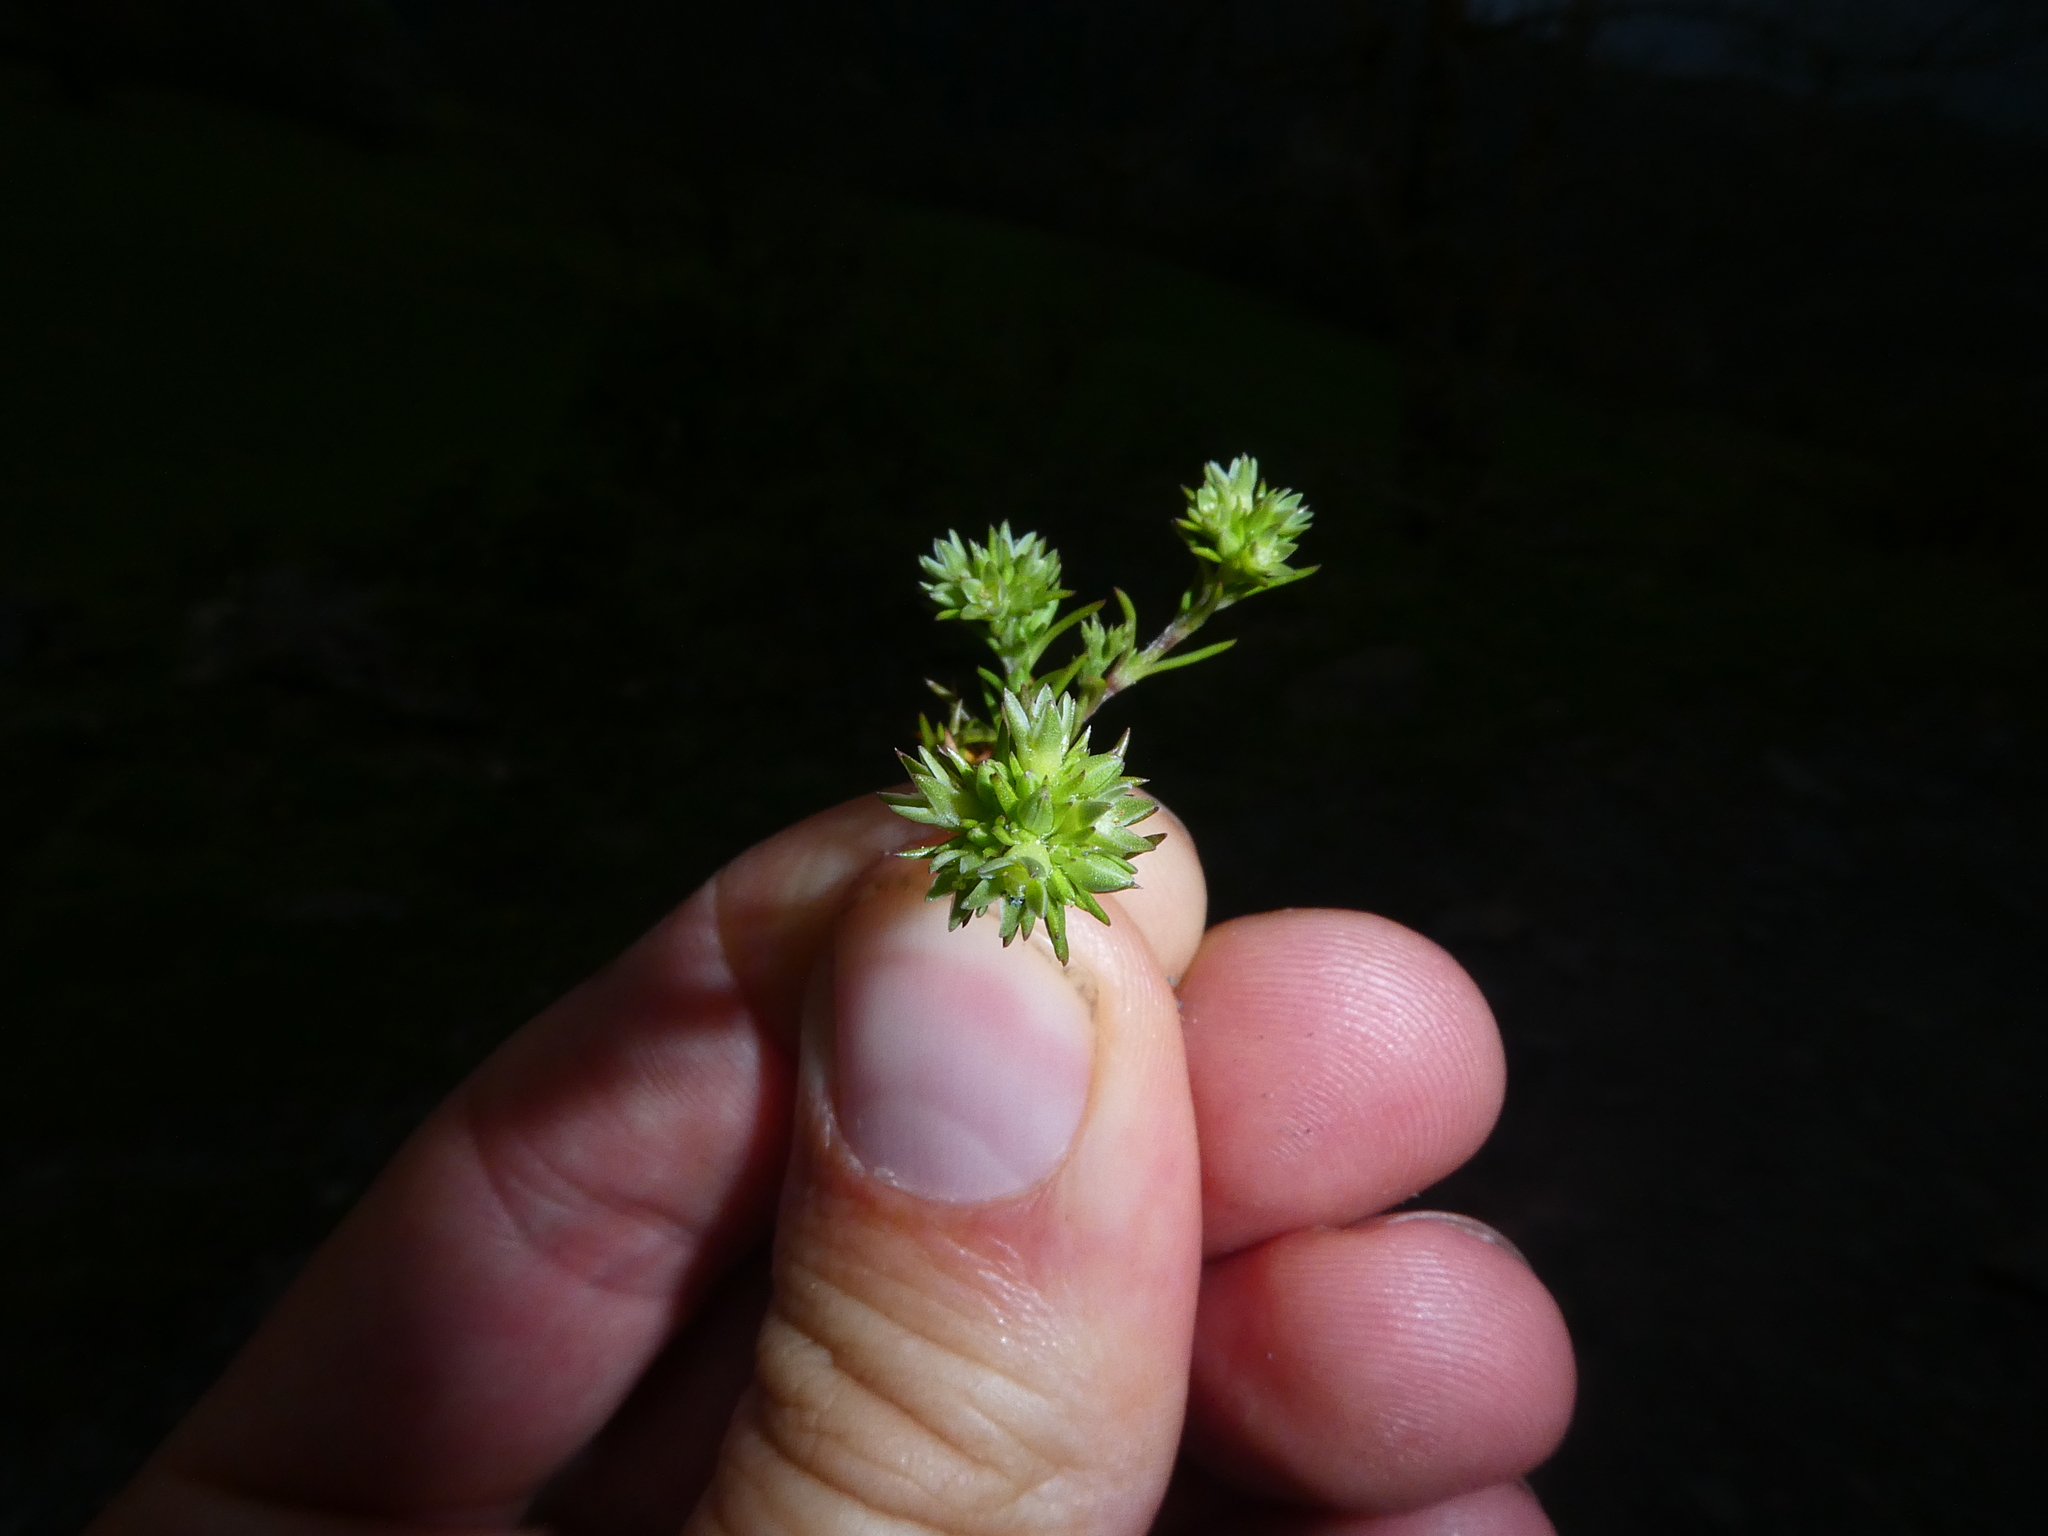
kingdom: Plantae
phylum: Tracheophyta
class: Magnoliopsida
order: Caryophyllales
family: Caryophyllaceae
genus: Scleranthus
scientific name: Scleranthus annuus
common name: Annual knawel
